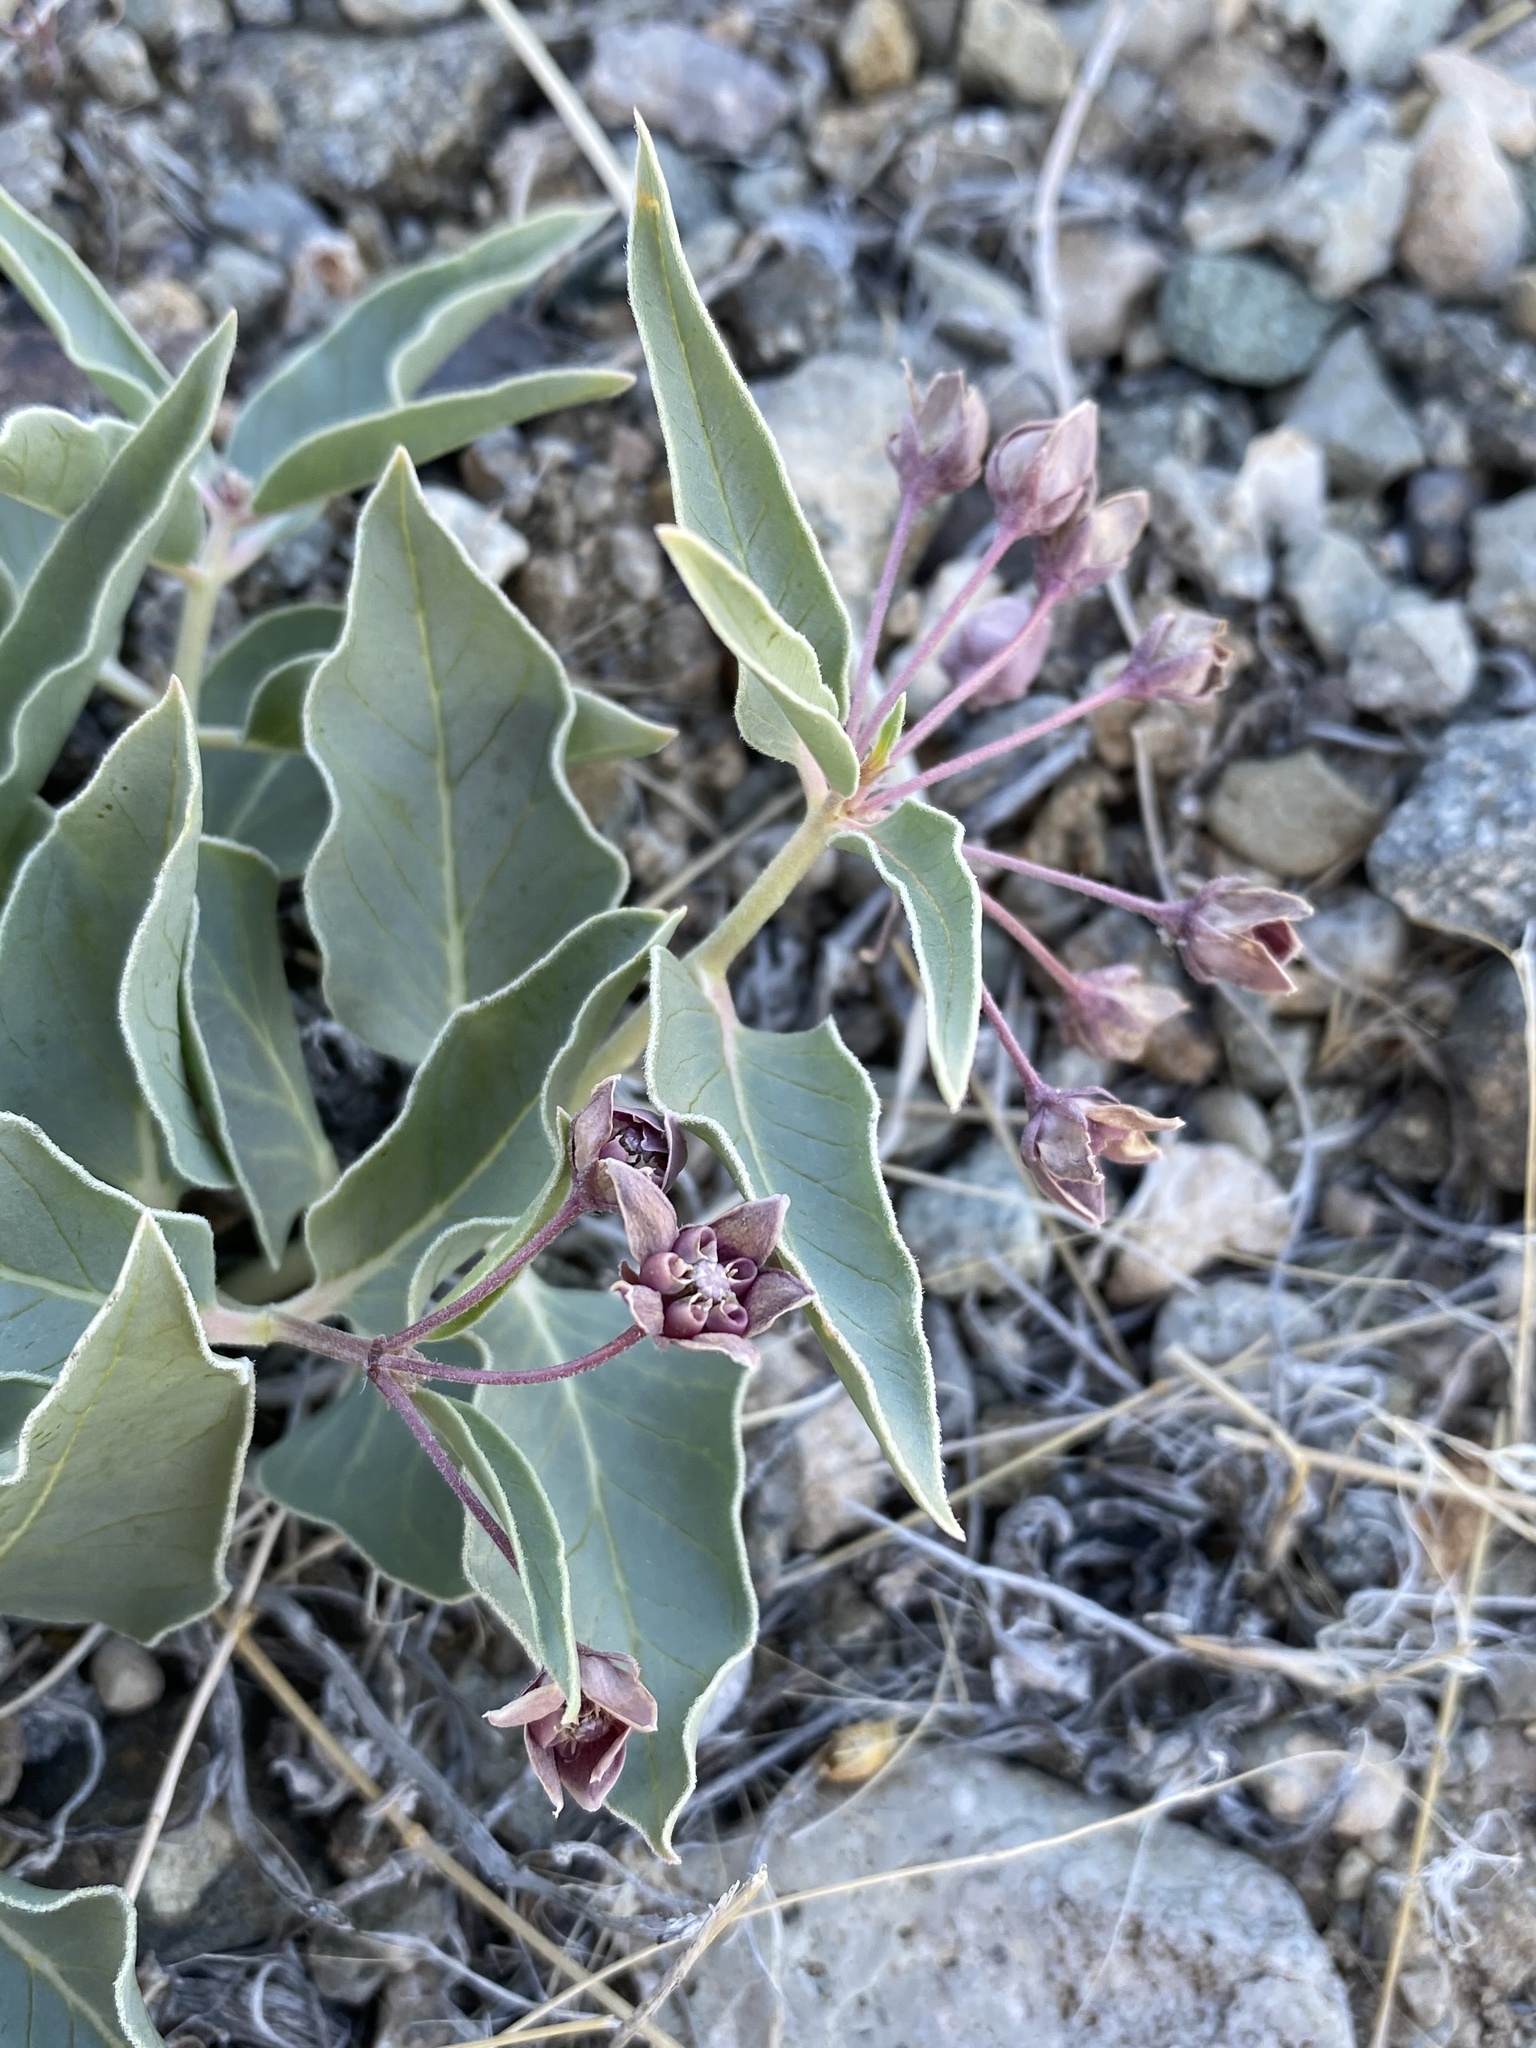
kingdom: Plantae
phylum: Tracheophyta
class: Magnoliopsida
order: Gentianales
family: Apocynaceae
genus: Asclepias
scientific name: Asclepias ruthiae
